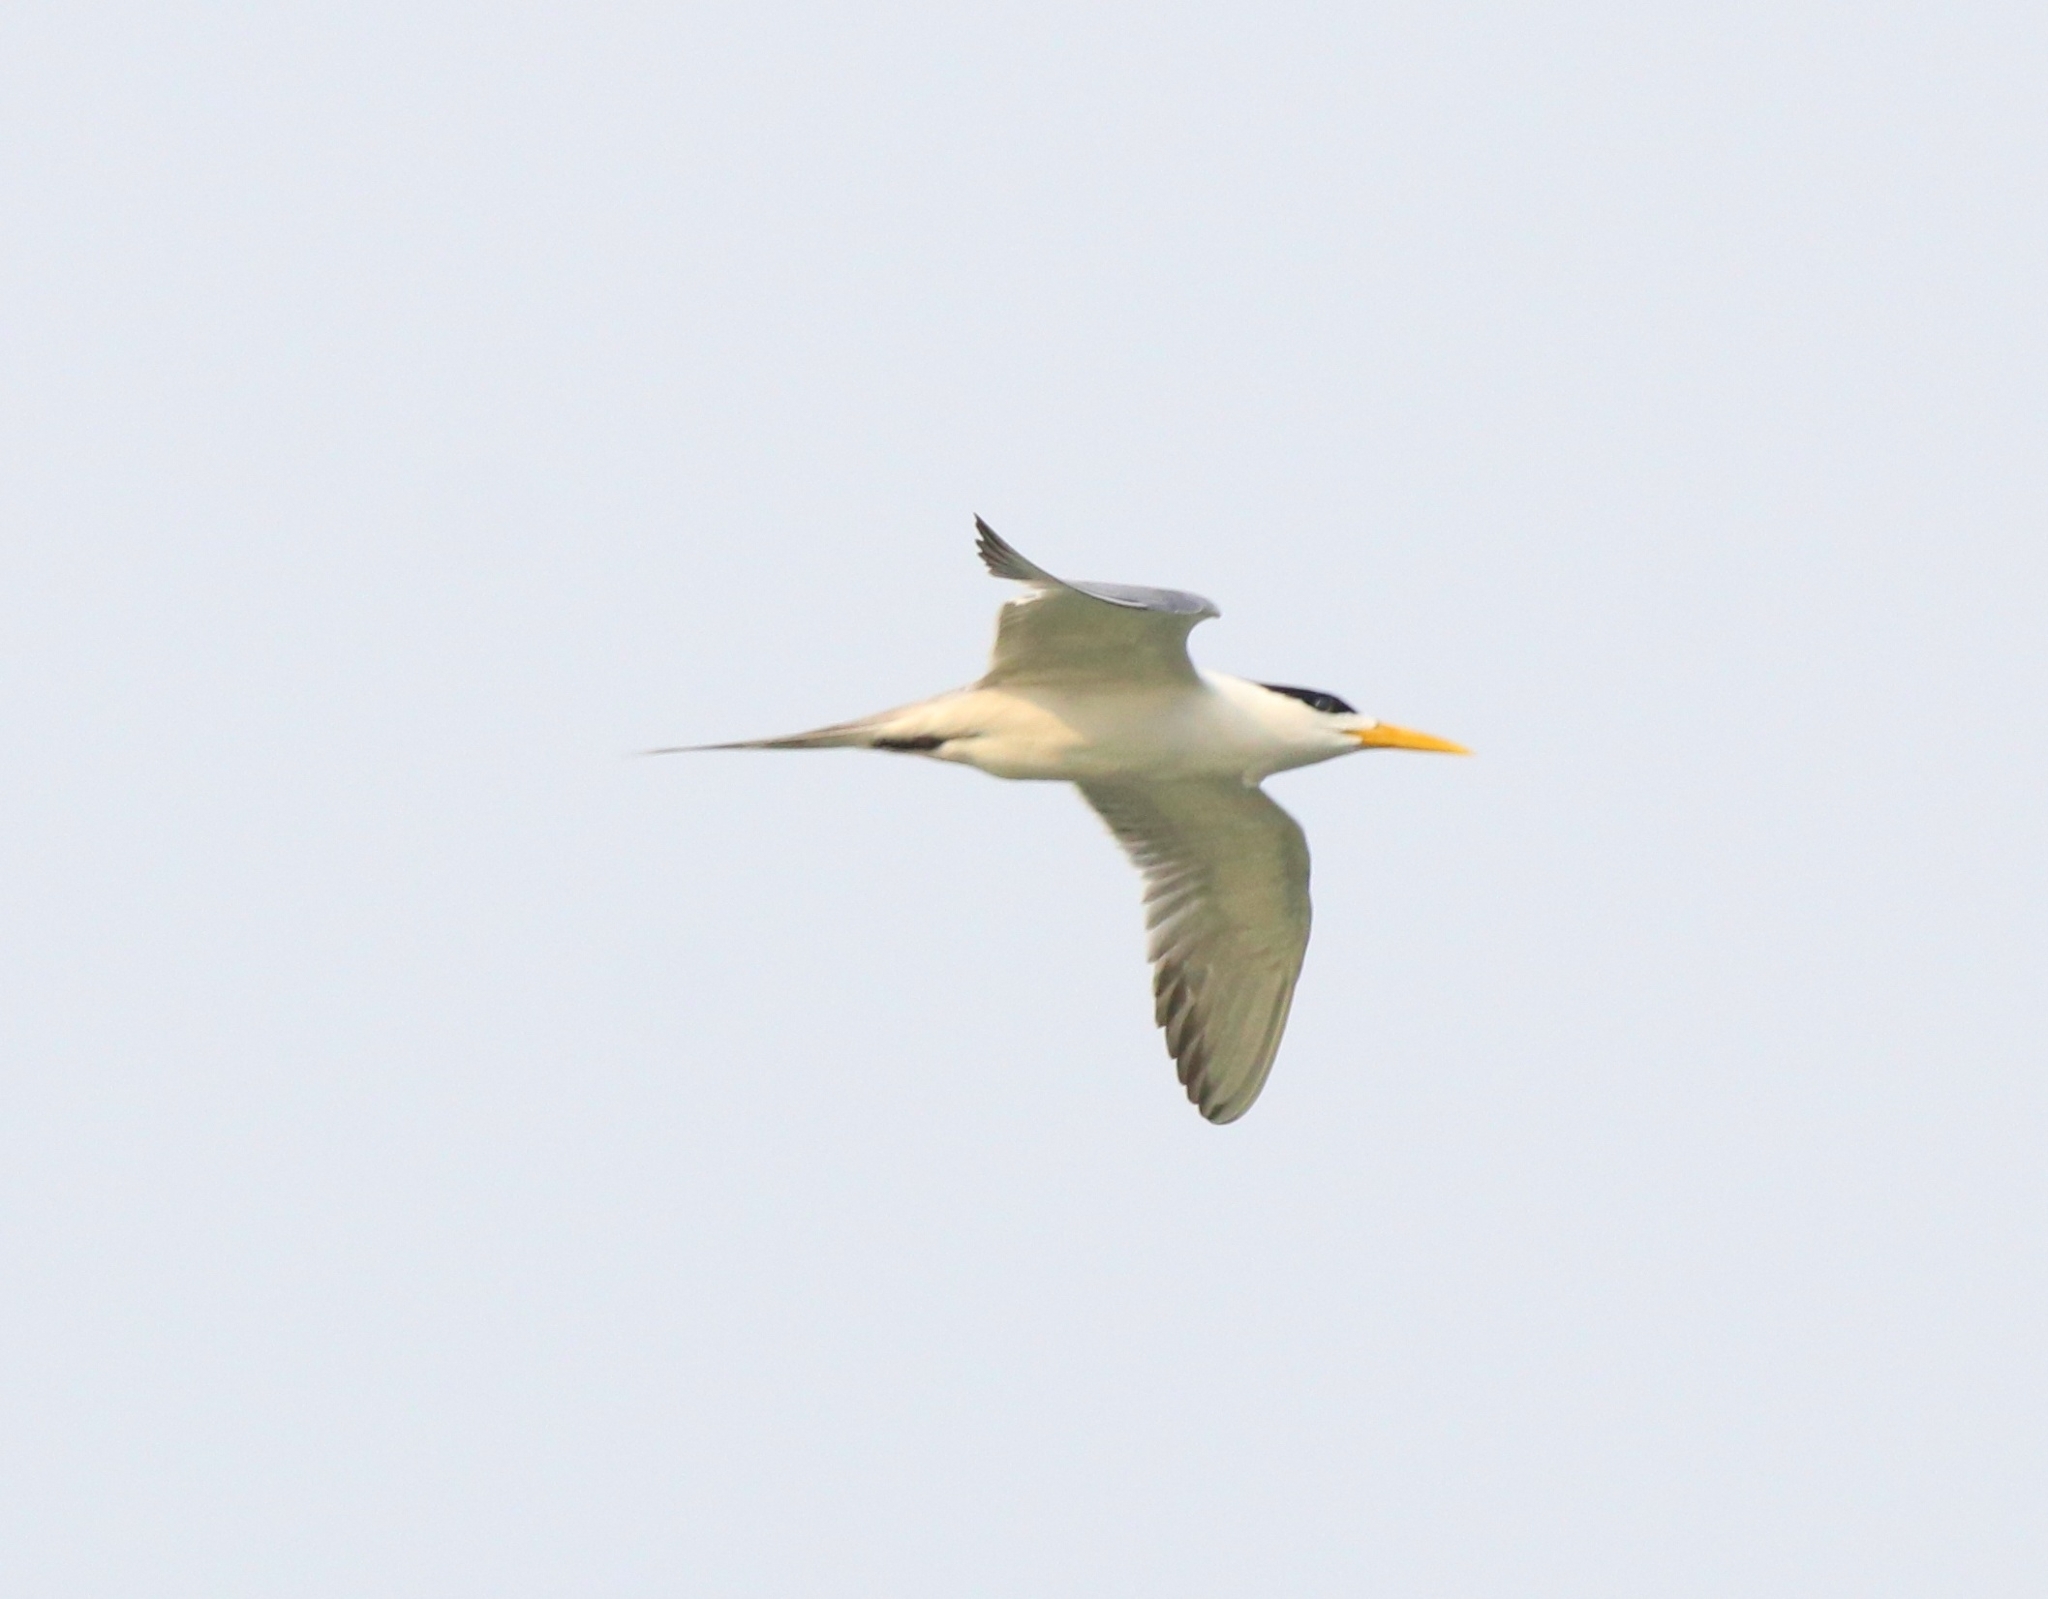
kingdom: Animalia
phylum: Chordata
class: Aves
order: Charadriiformes
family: Laridae
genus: Thalasseus
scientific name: Thalasseus bergii
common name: Greater crested tern
